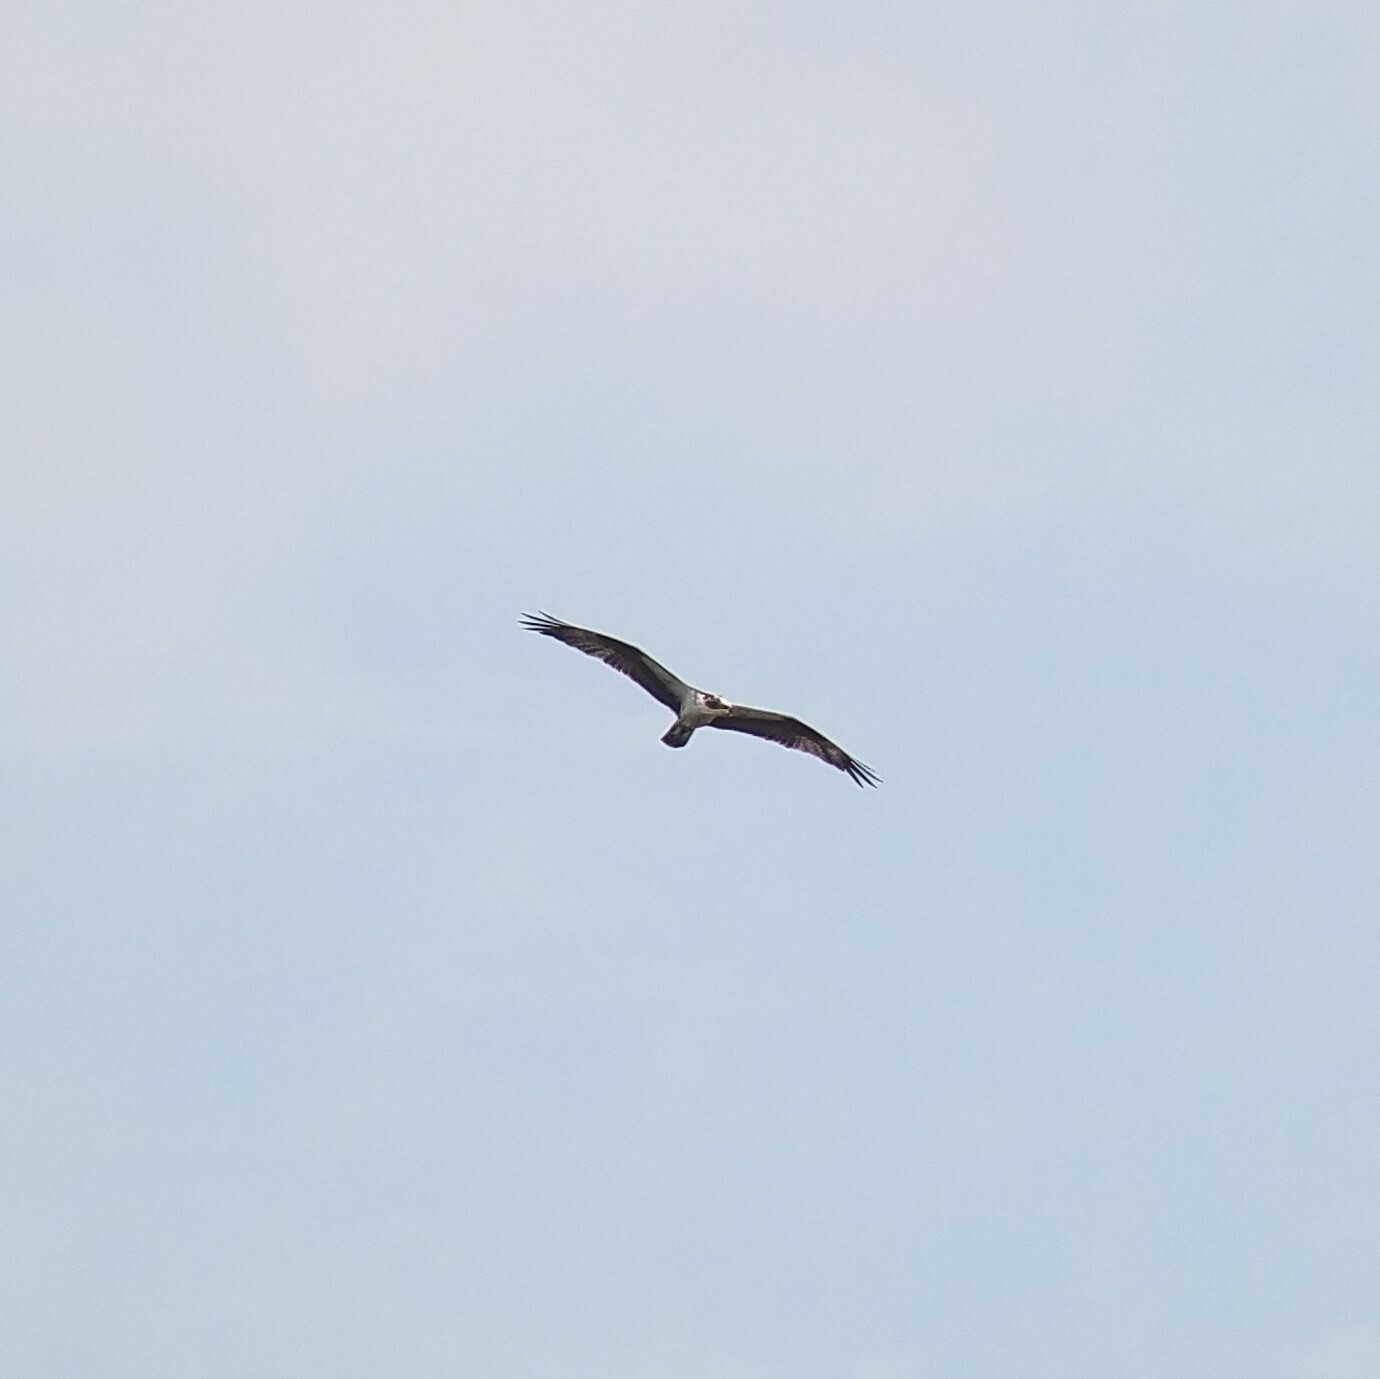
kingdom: Animalia
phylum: Chordata
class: Aves
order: Accipitriformes
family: Pandionidae
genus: Pandion
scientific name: Pandion haliaetus
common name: Osprey
